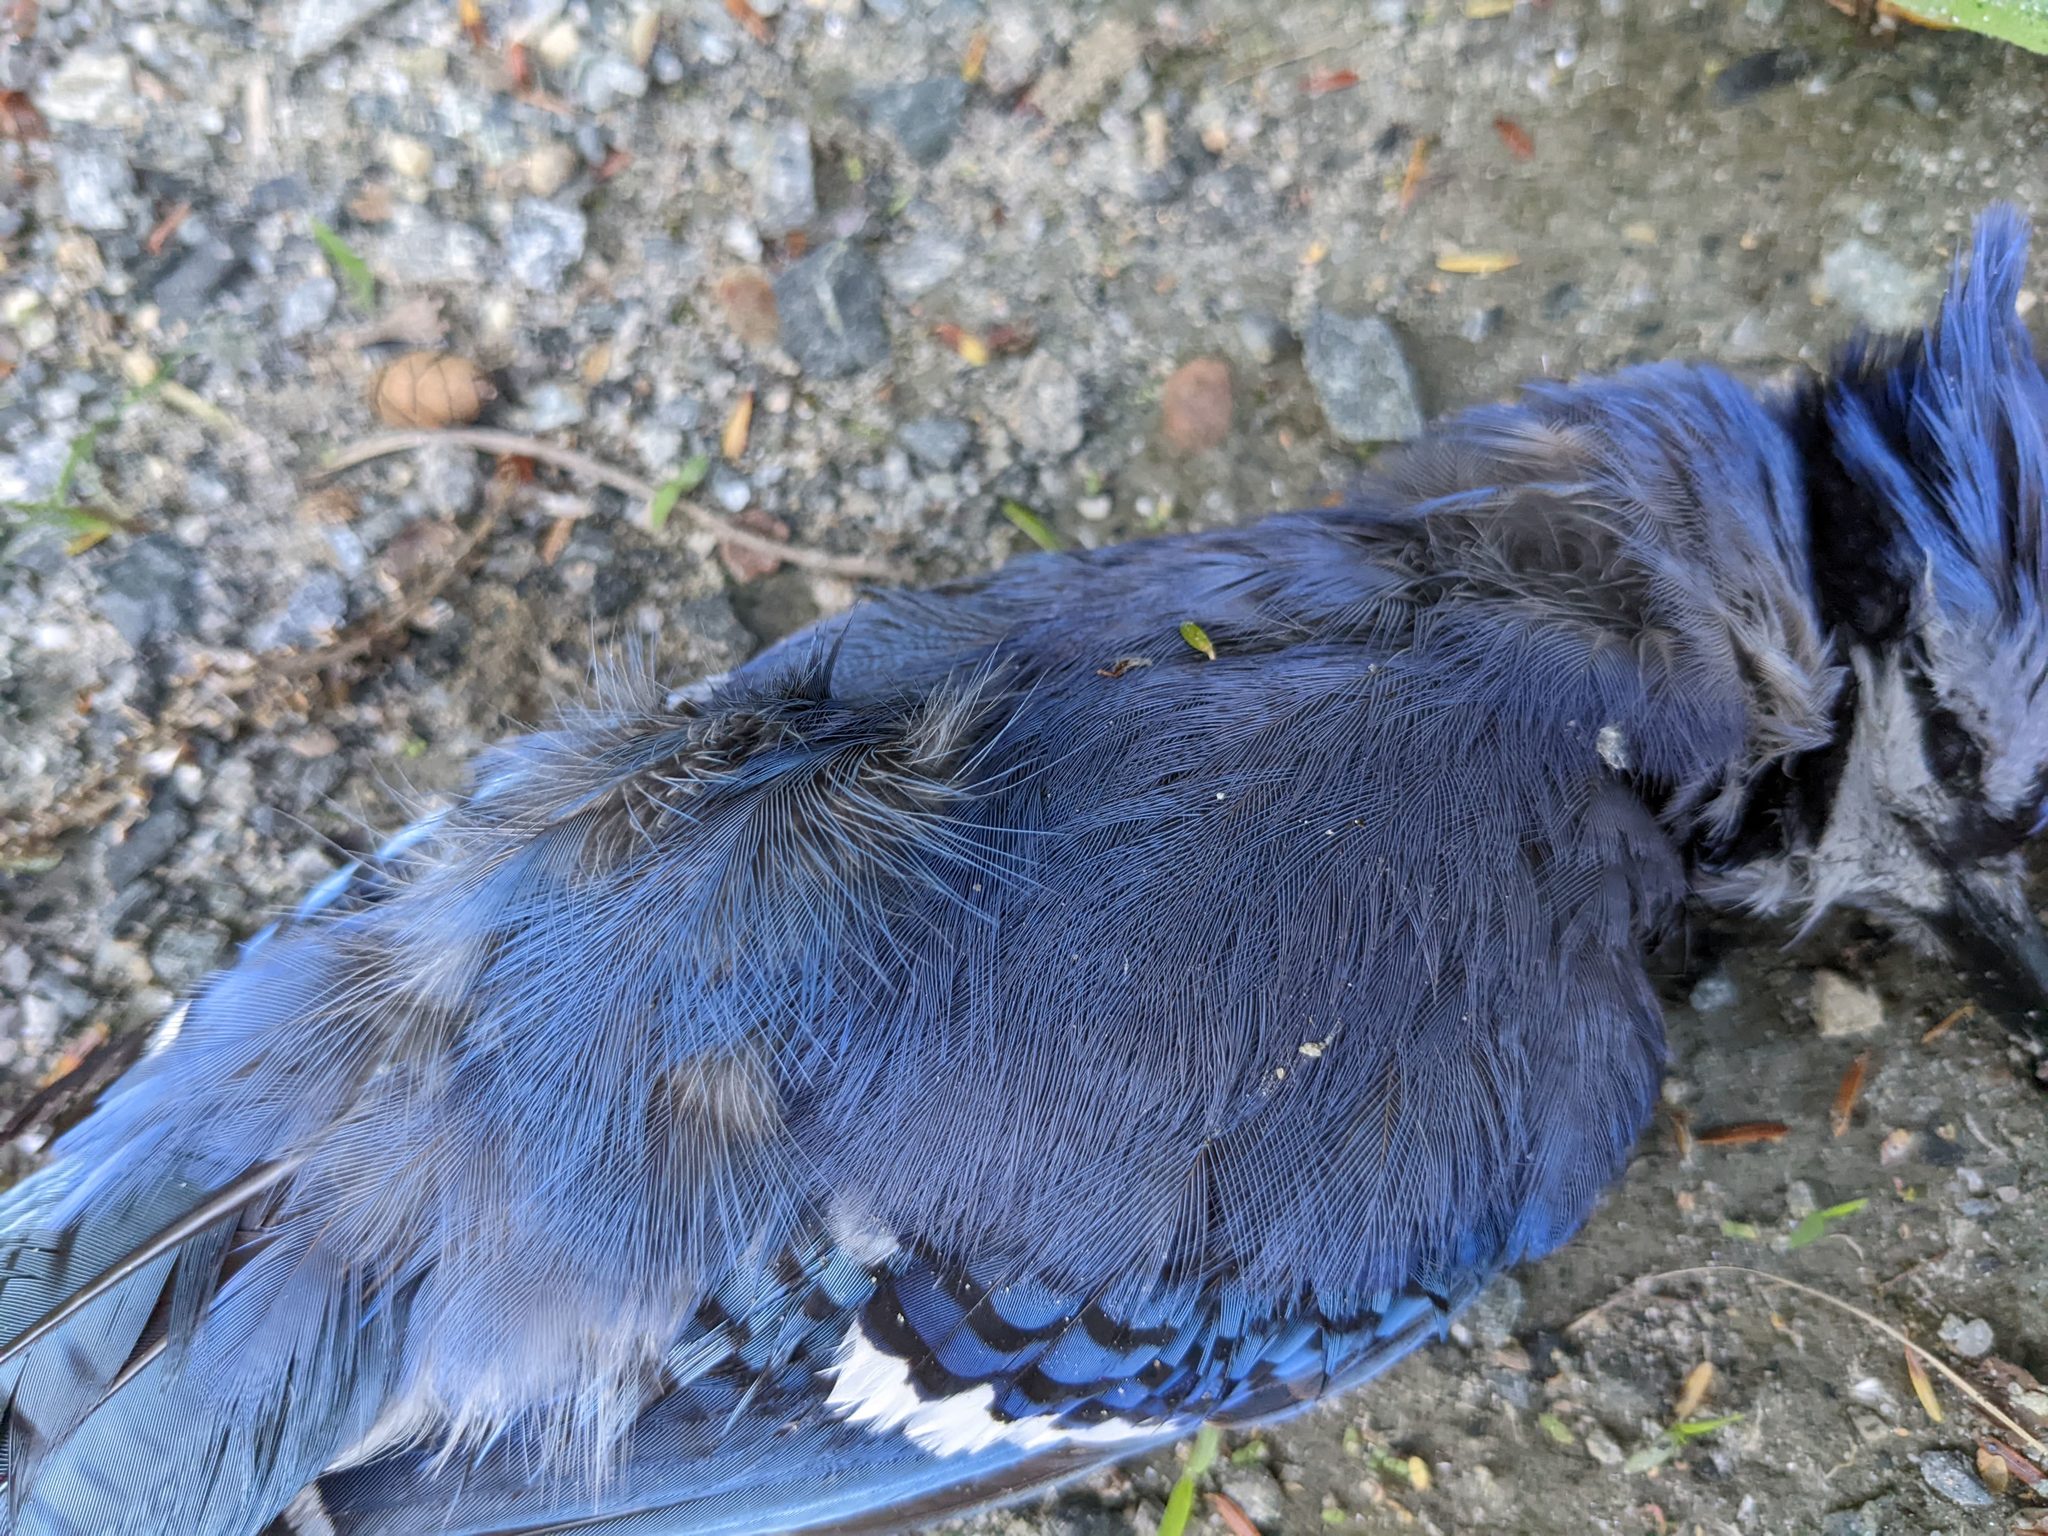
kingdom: Animalia
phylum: Chordata
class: Aves
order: Passeriformes
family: Corvidae
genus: Cyanocitta
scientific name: Cyanocitta cristata
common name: Blue jay
